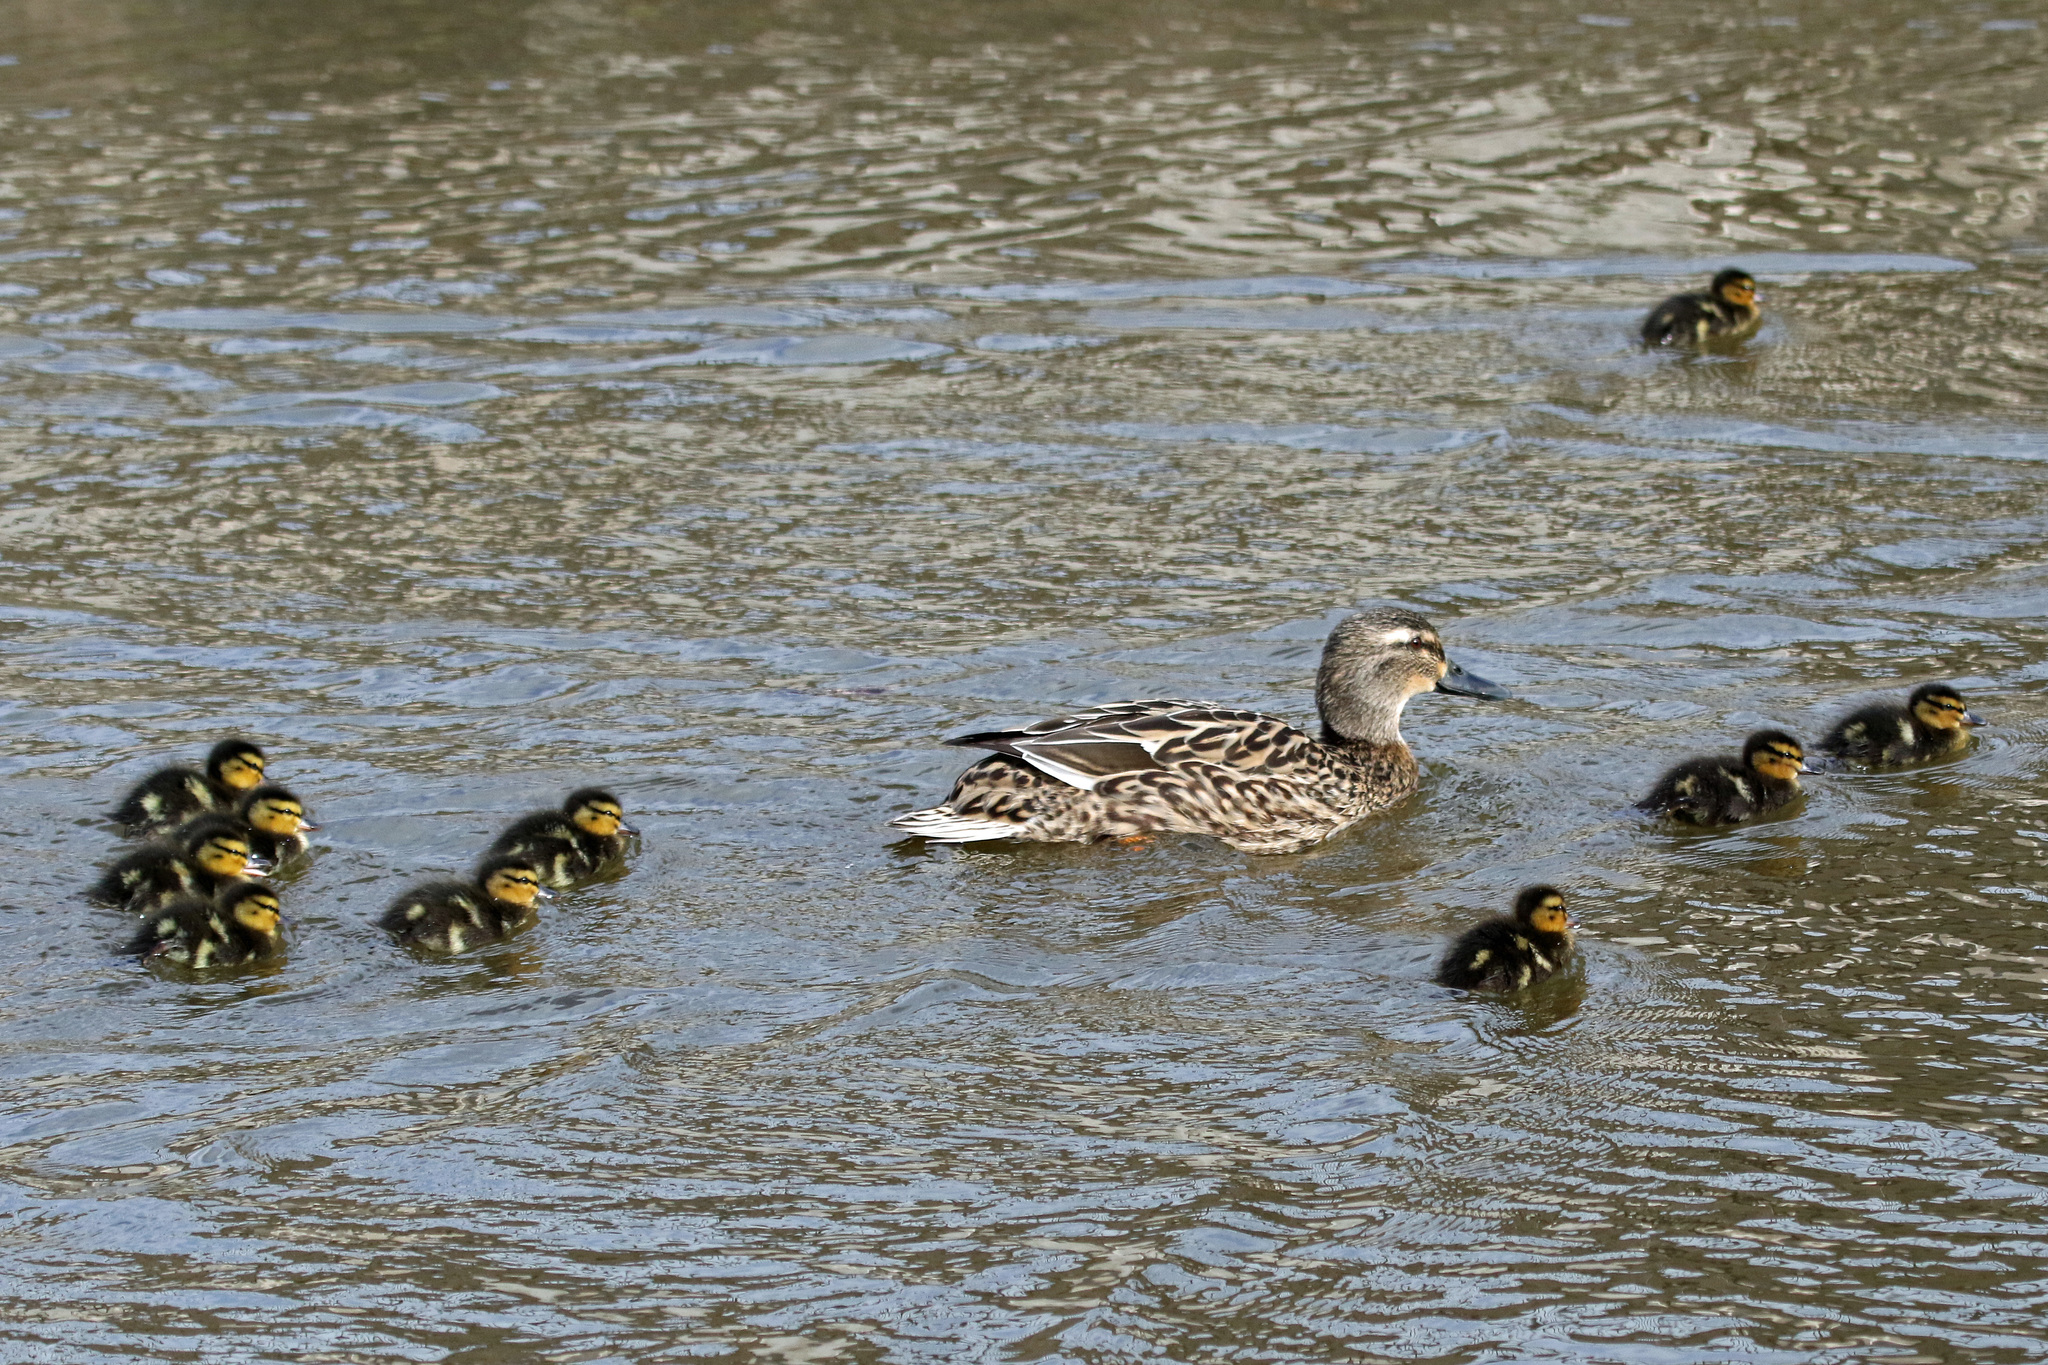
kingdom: Animalia
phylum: Chordata
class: Aves
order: Anseriformes
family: Anatidae
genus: Anas
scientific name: Anas platyrhynchos
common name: Mallard
